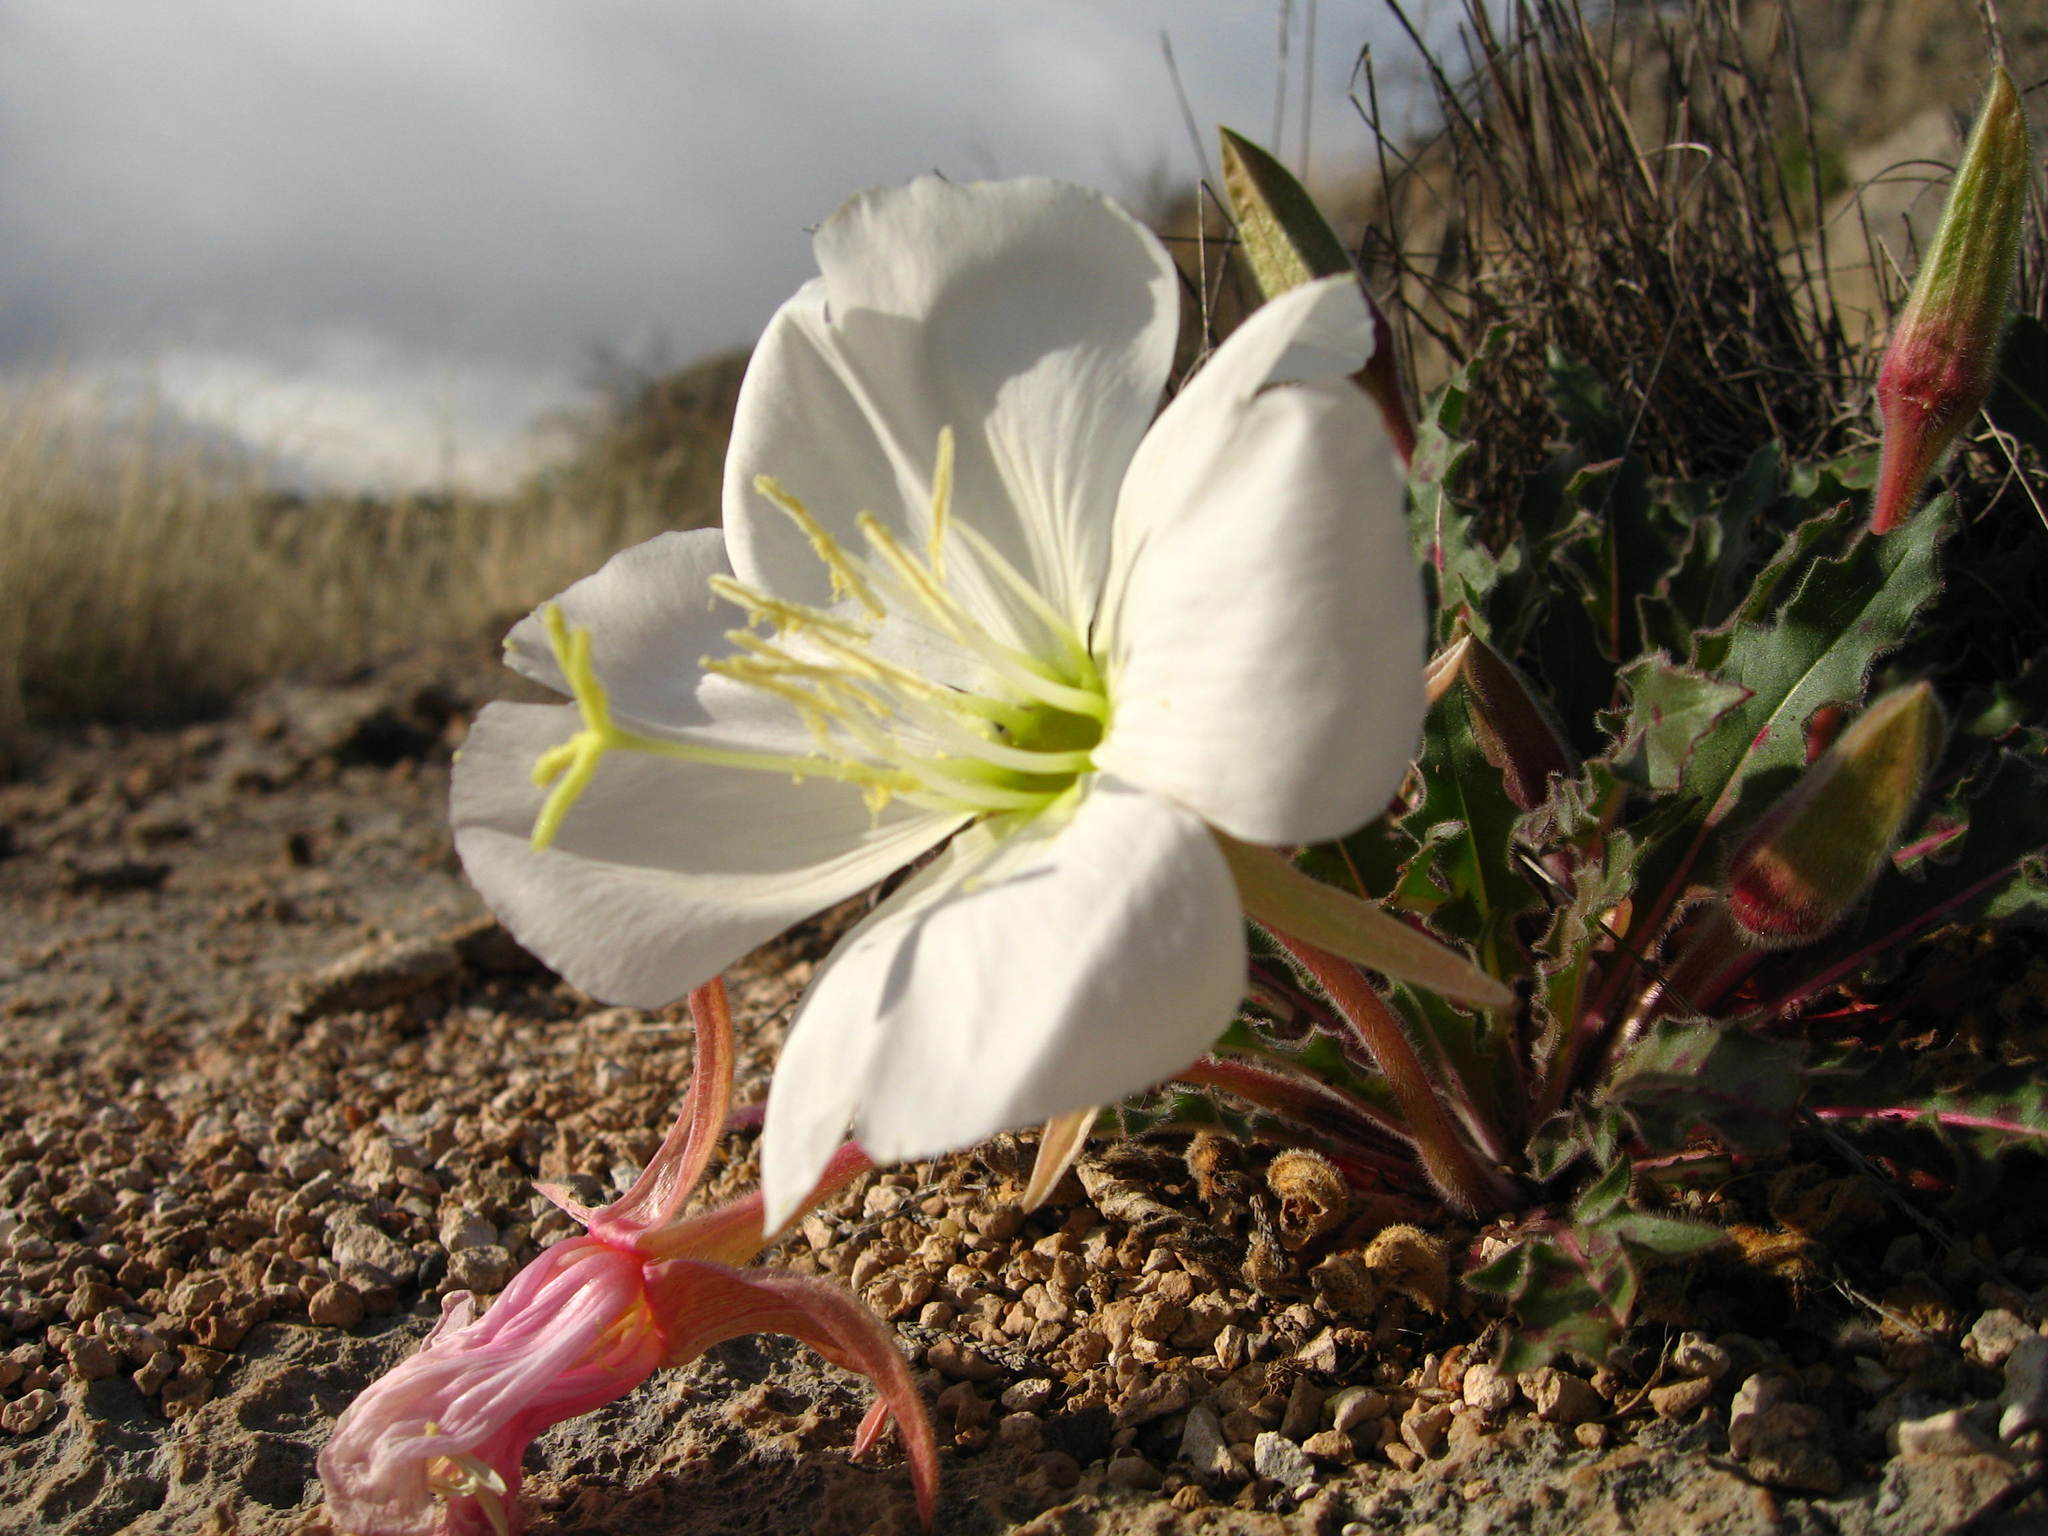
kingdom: Plantae
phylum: Tracheophyta
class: Magnoliopsida
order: Myrtales
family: Onagraceae
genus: Oenothera
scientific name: Oenothera cespitosa
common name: Tufted evening-primrose
